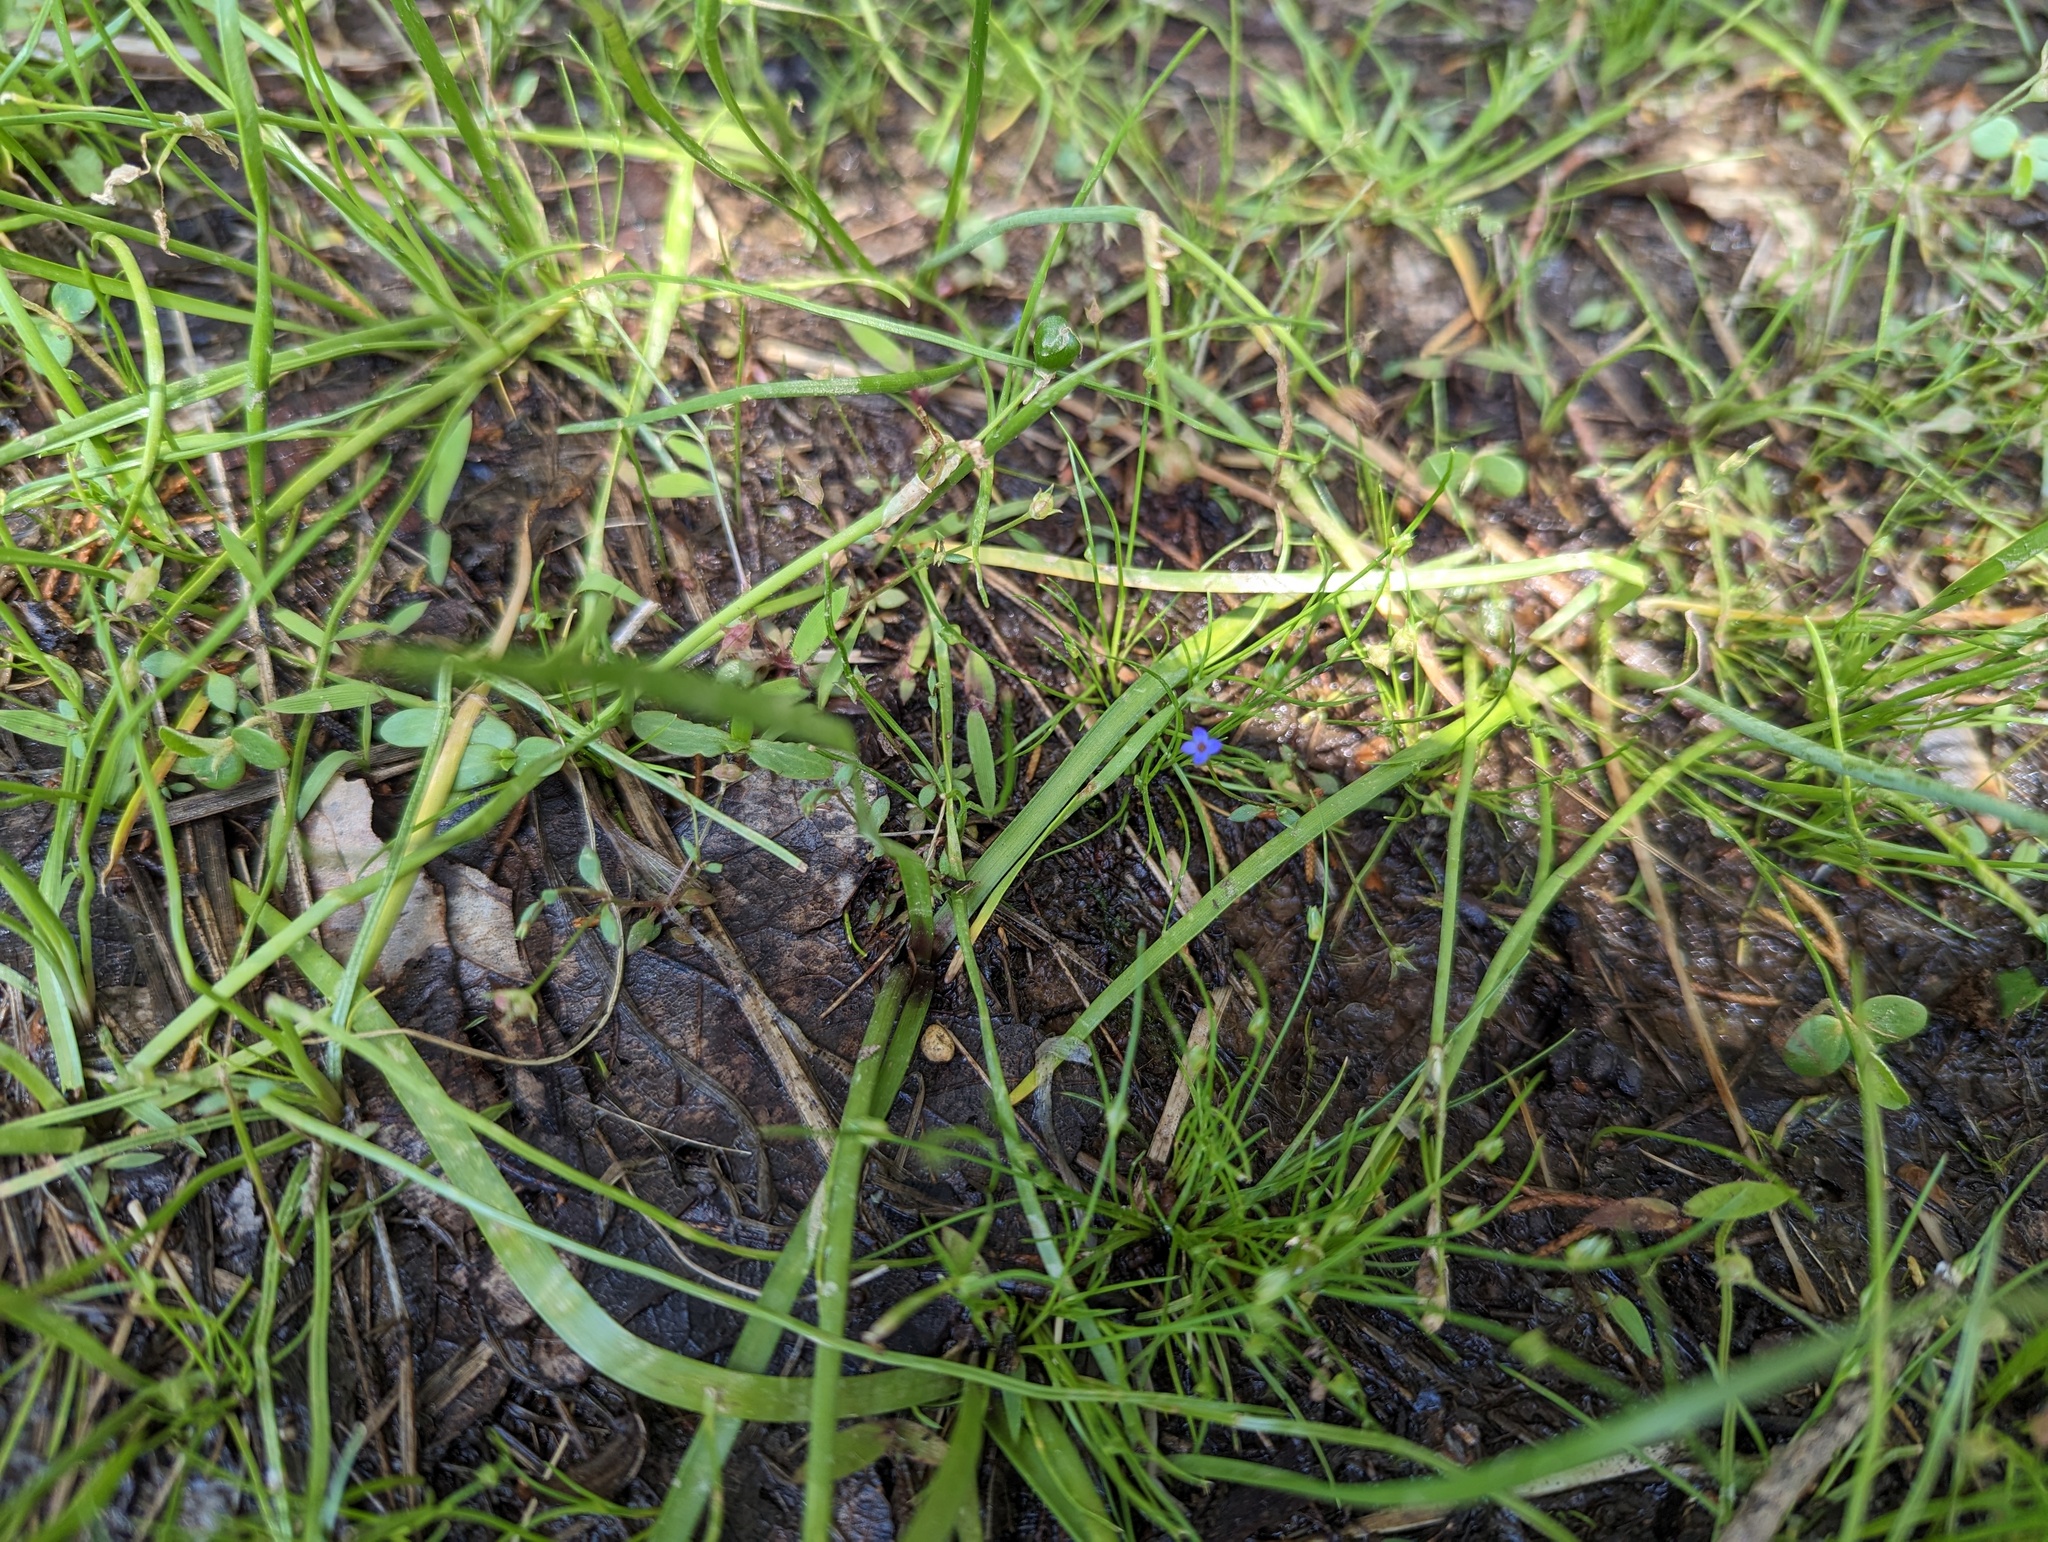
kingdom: Plantae
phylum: Tracheophyta
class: Magnoliopsida
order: Gentianales
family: Rubiaceae
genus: Houstonia
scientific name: Houstonia pusilla
